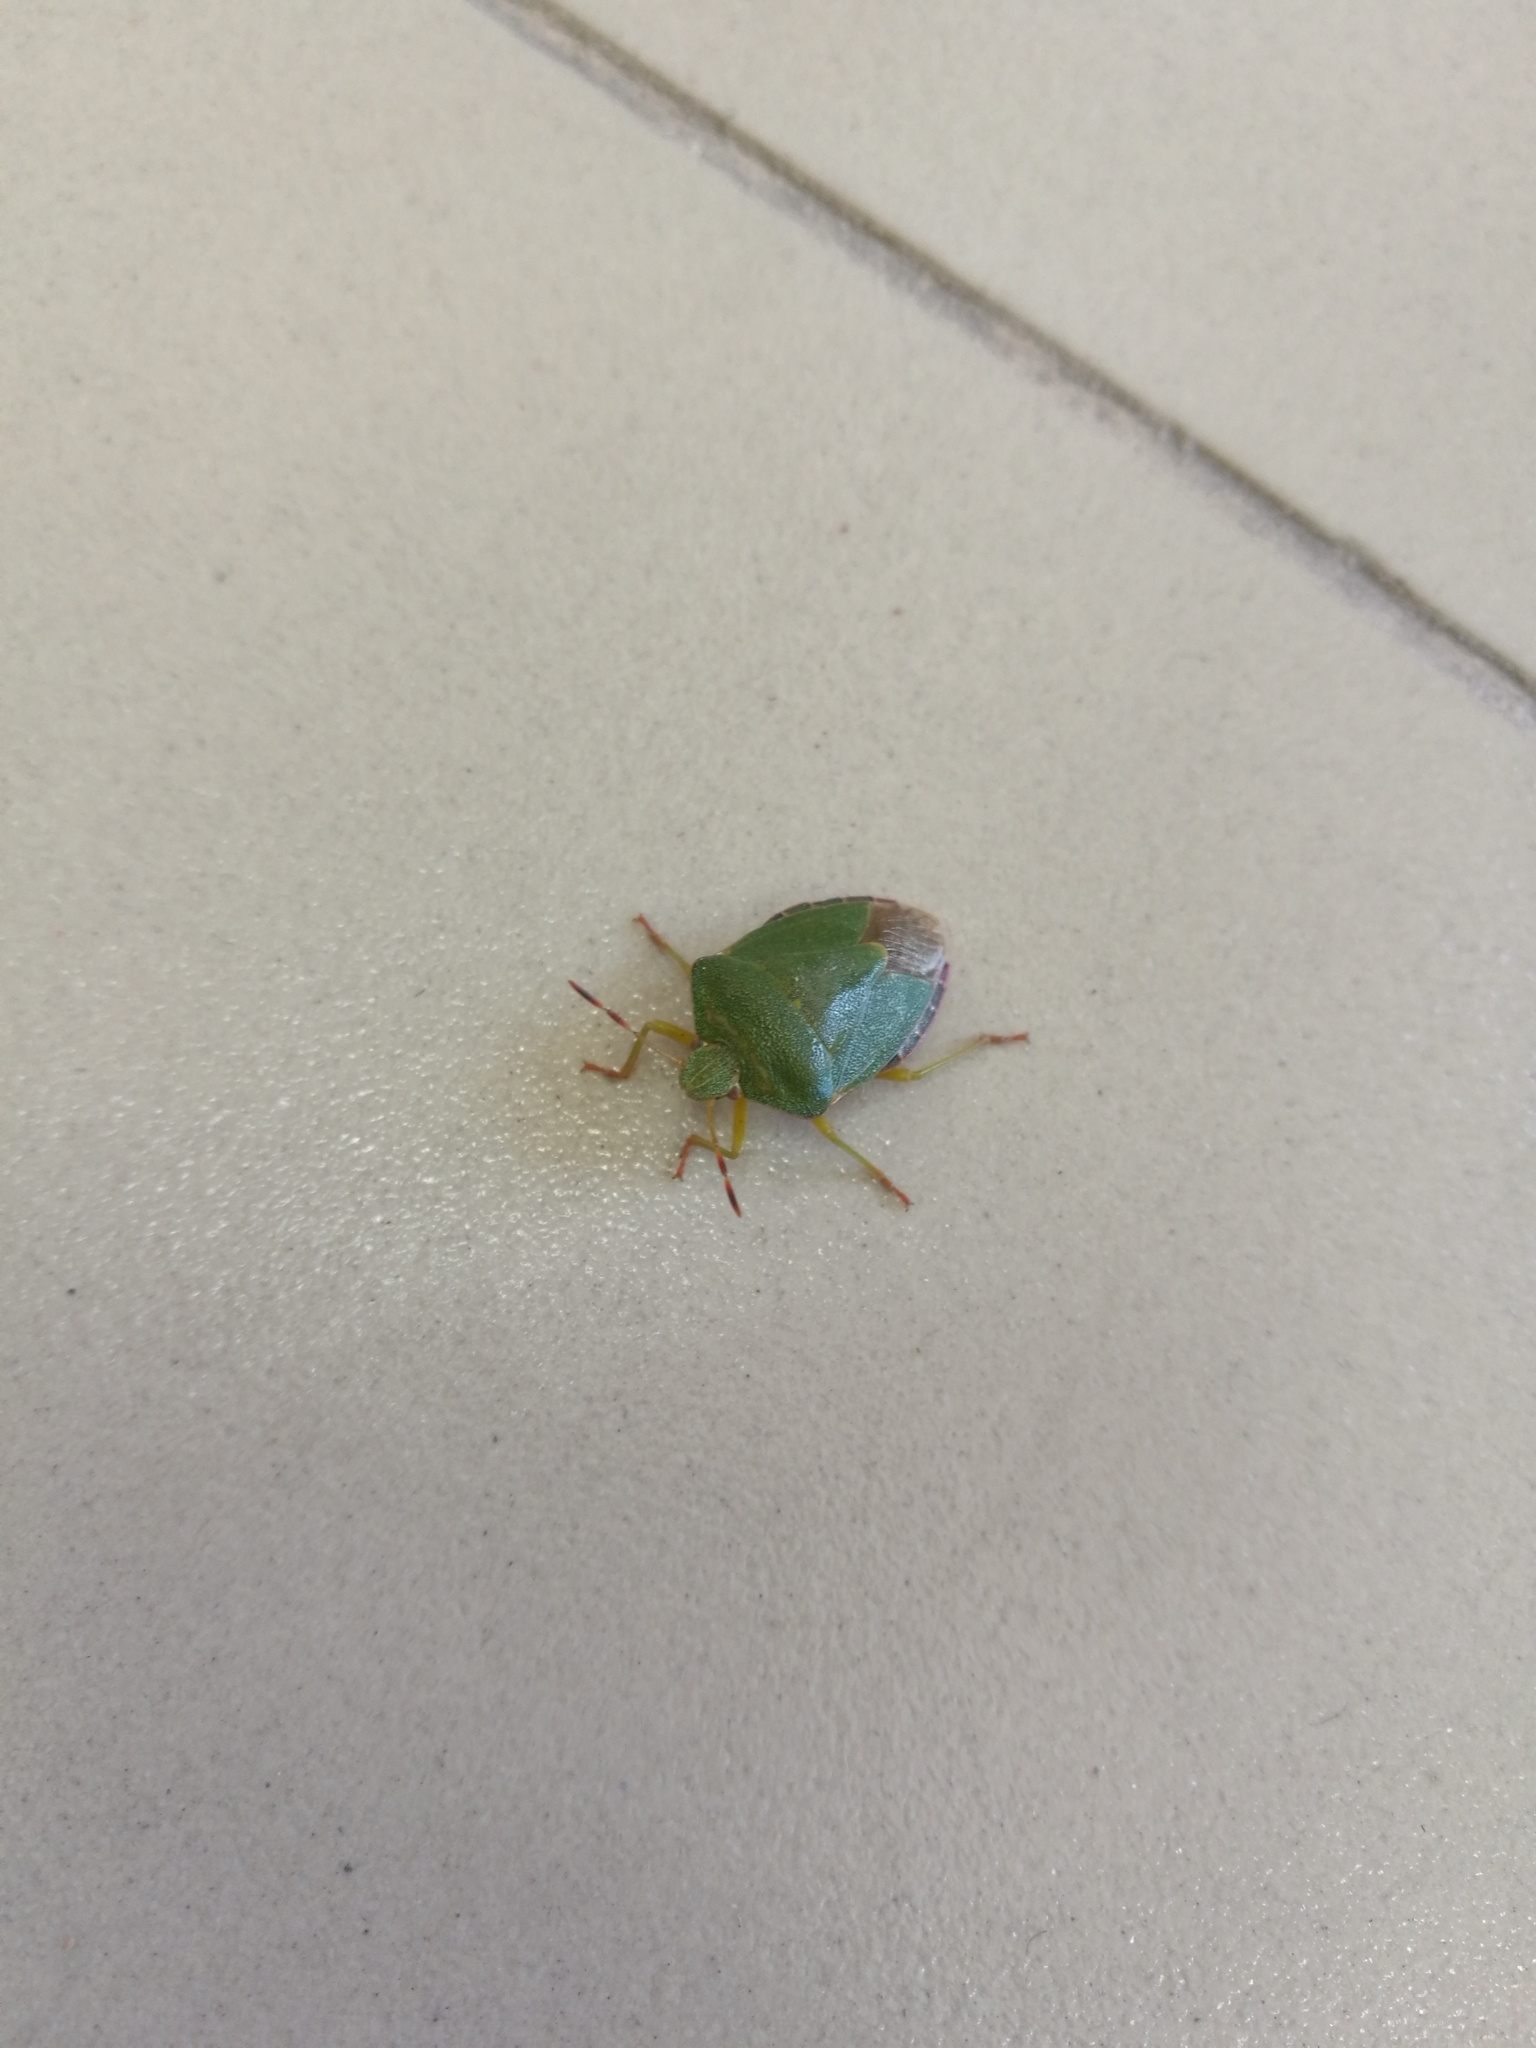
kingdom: Animalia
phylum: Arthropoda
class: Insecta
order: Hemiptera
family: Pentatomidae
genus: Palomena
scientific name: Palomena prasina
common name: Green shieldbug
